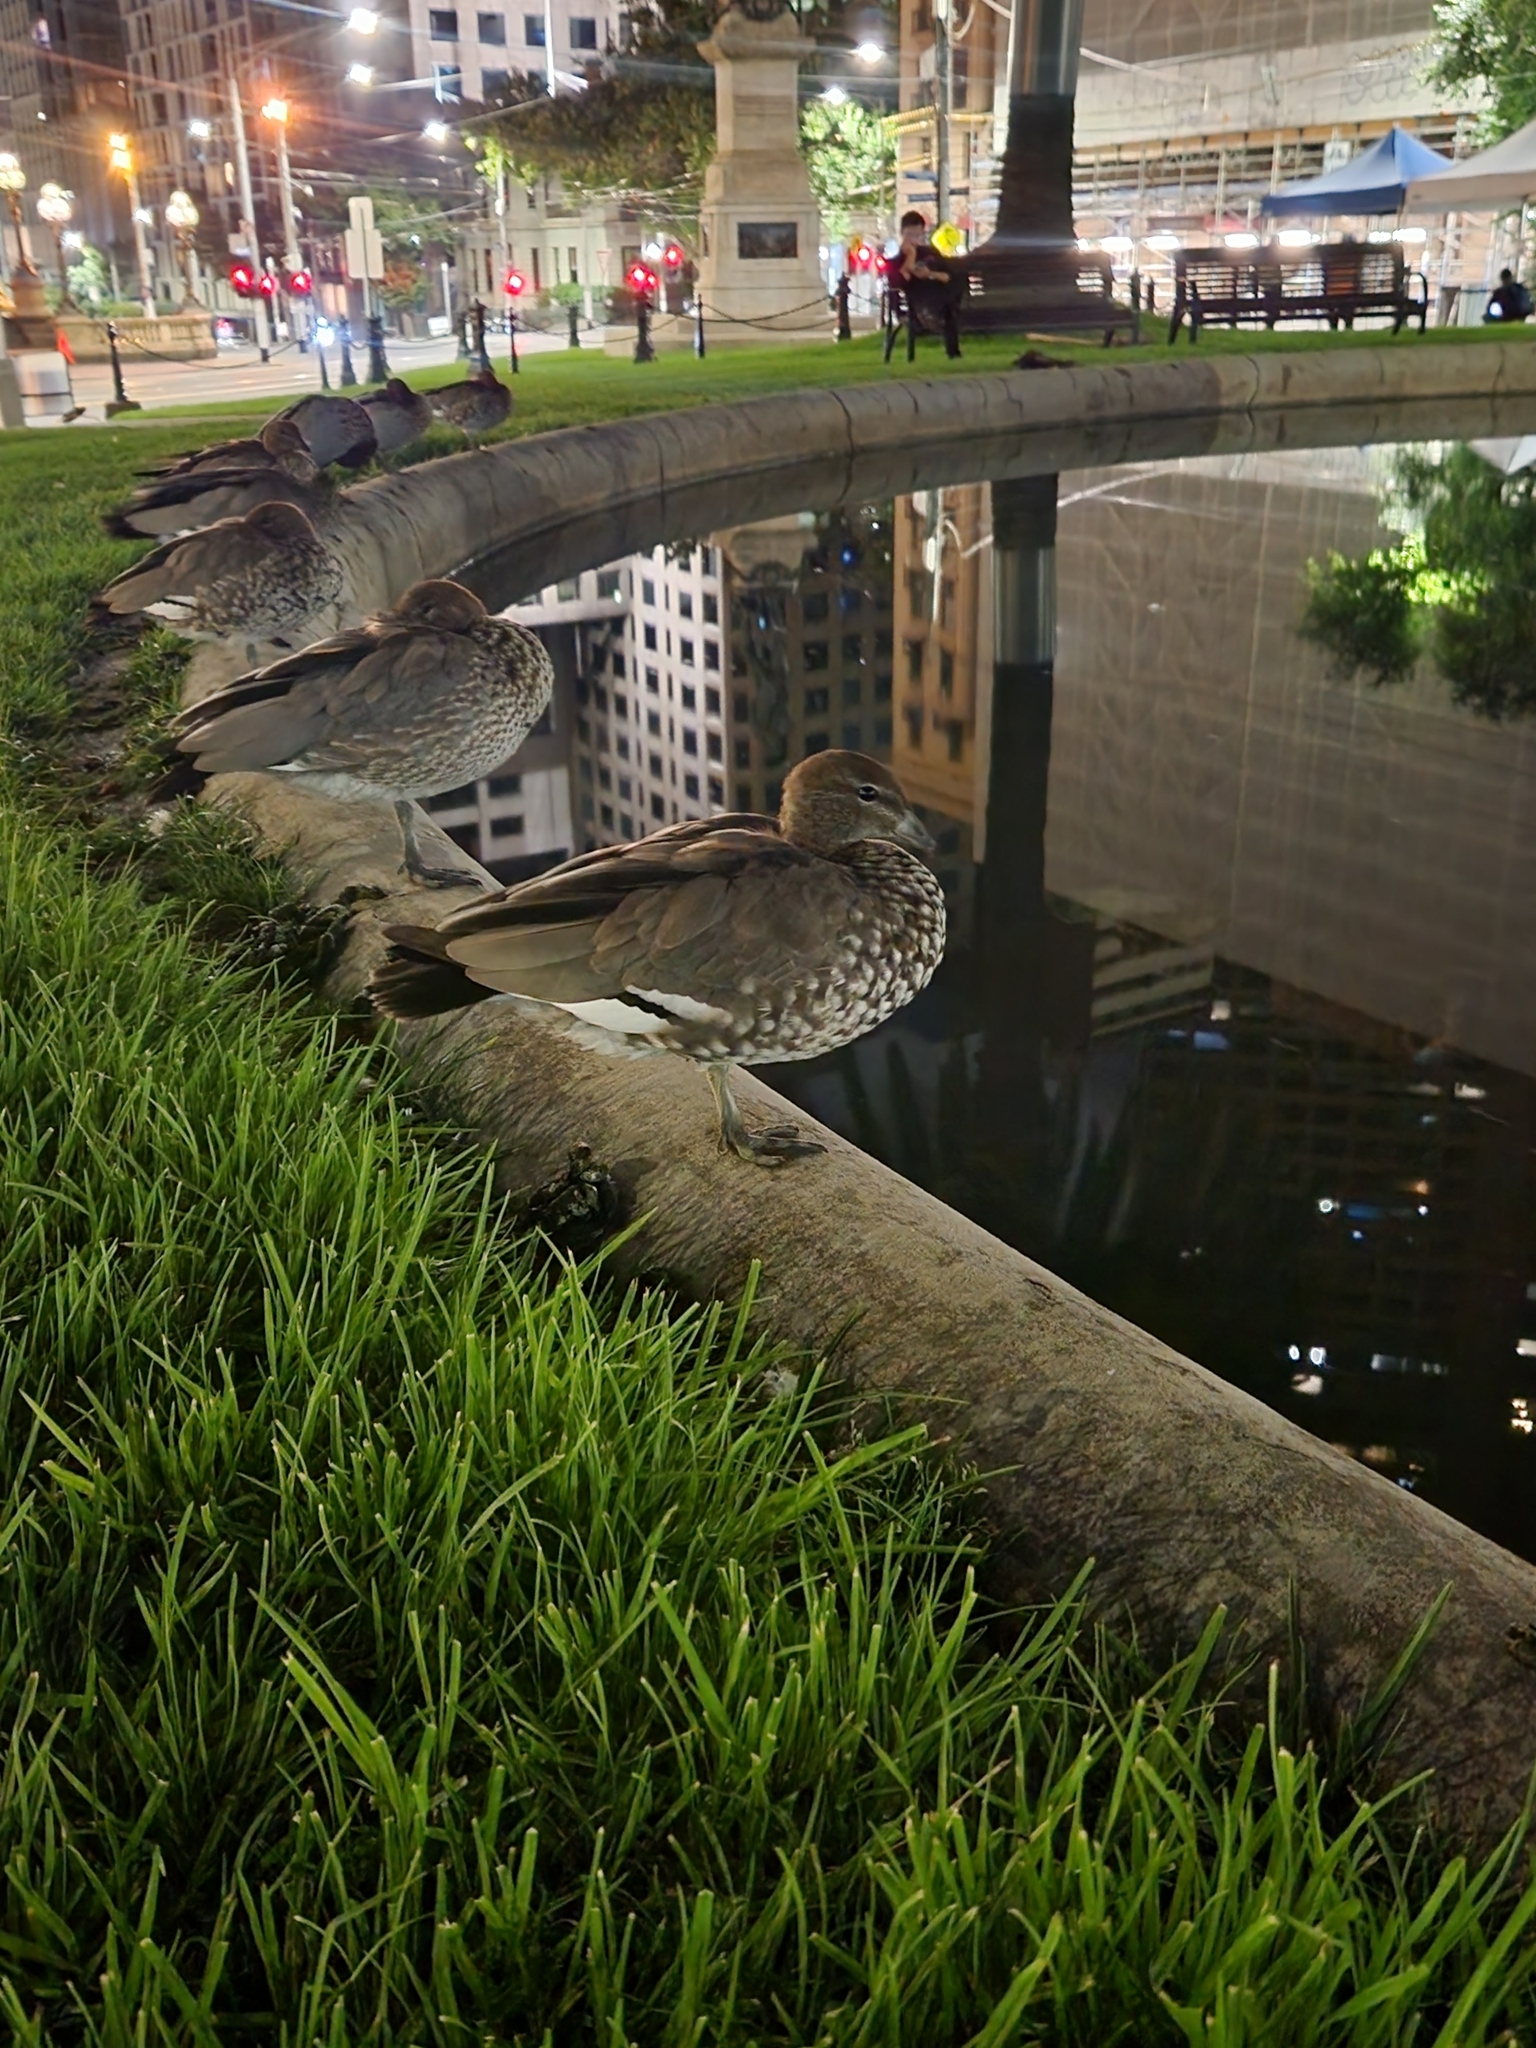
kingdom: Animalia
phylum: Chordata
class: Aves
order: Anseriformes
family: Anatidae
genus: Chenonetta
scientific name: Chenonetta jubata
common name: Maned duck
